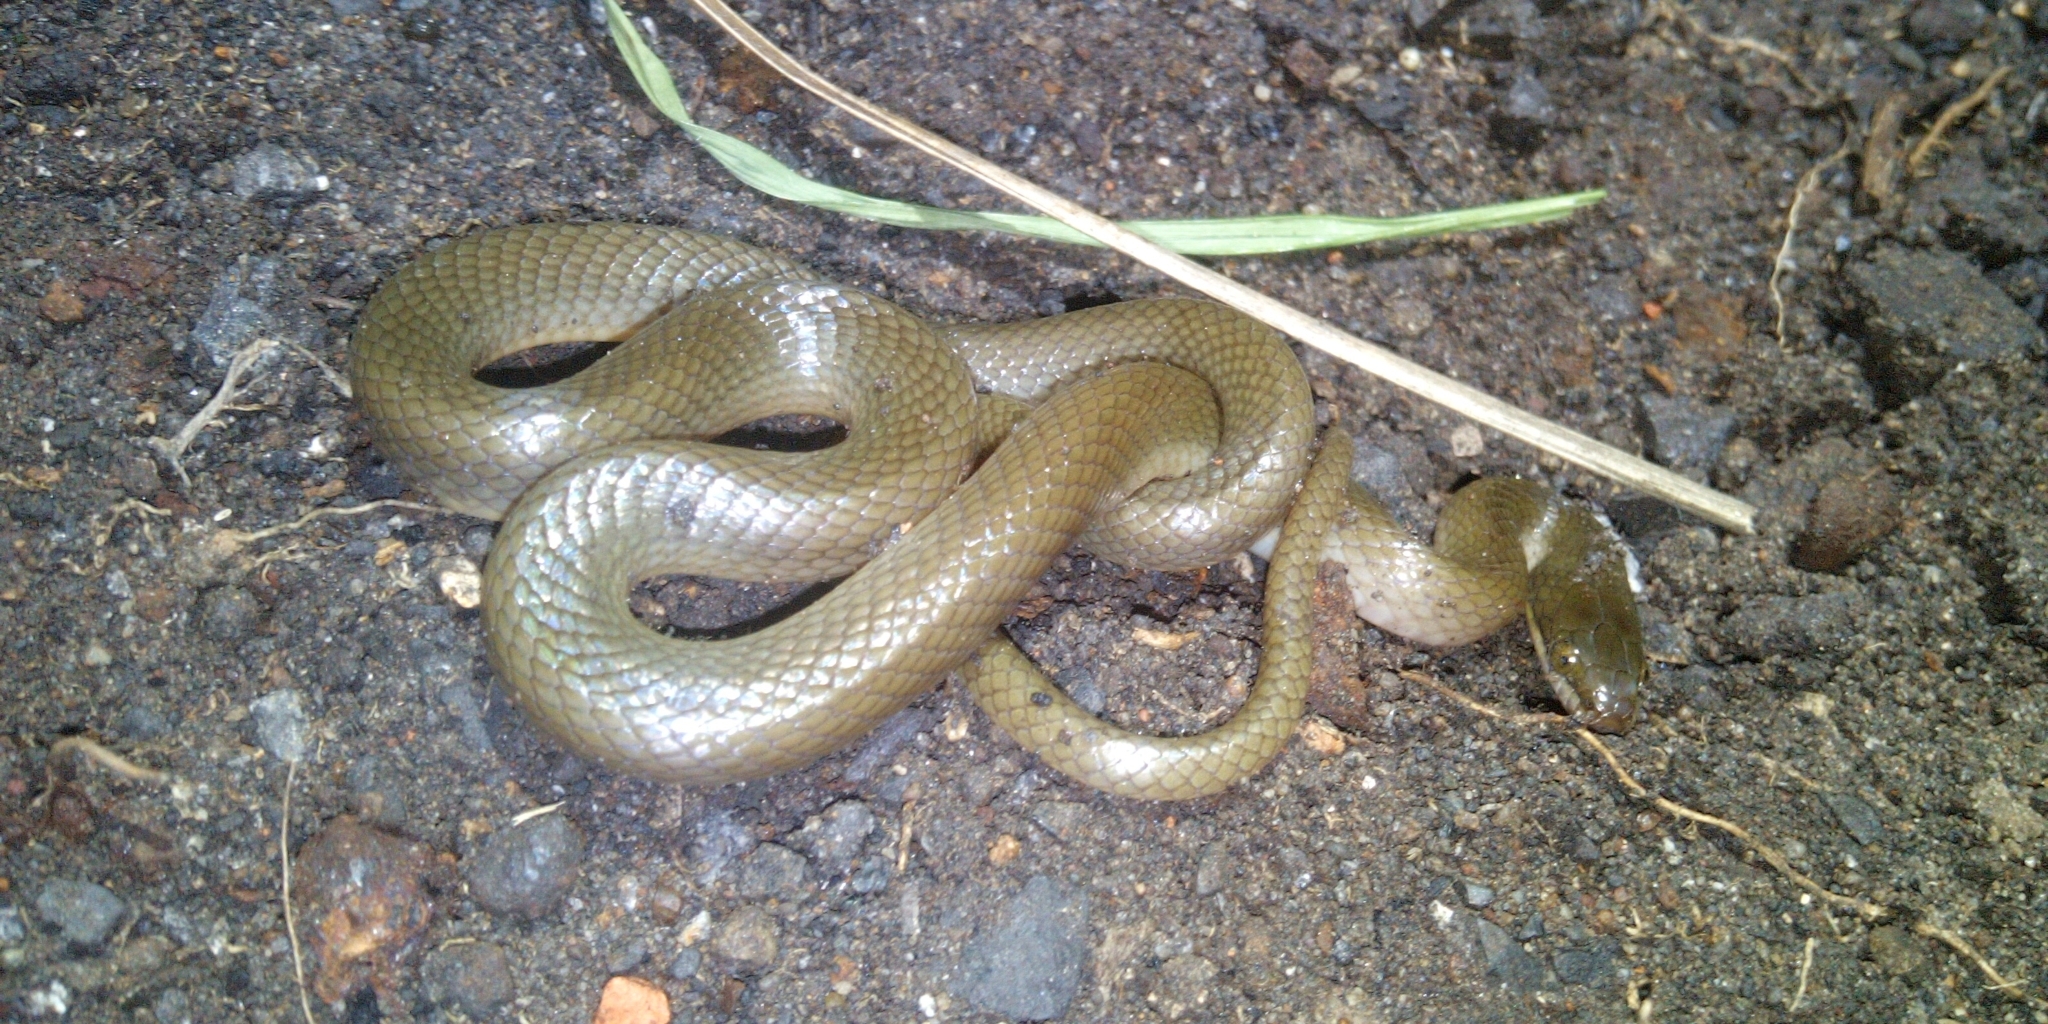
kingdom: Animalia
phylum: Chordata
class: Squamata
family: Lamprophiidae
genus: Lycodonomorphus
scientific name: Lycodonomorphus rufulus
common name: Brown water snake
